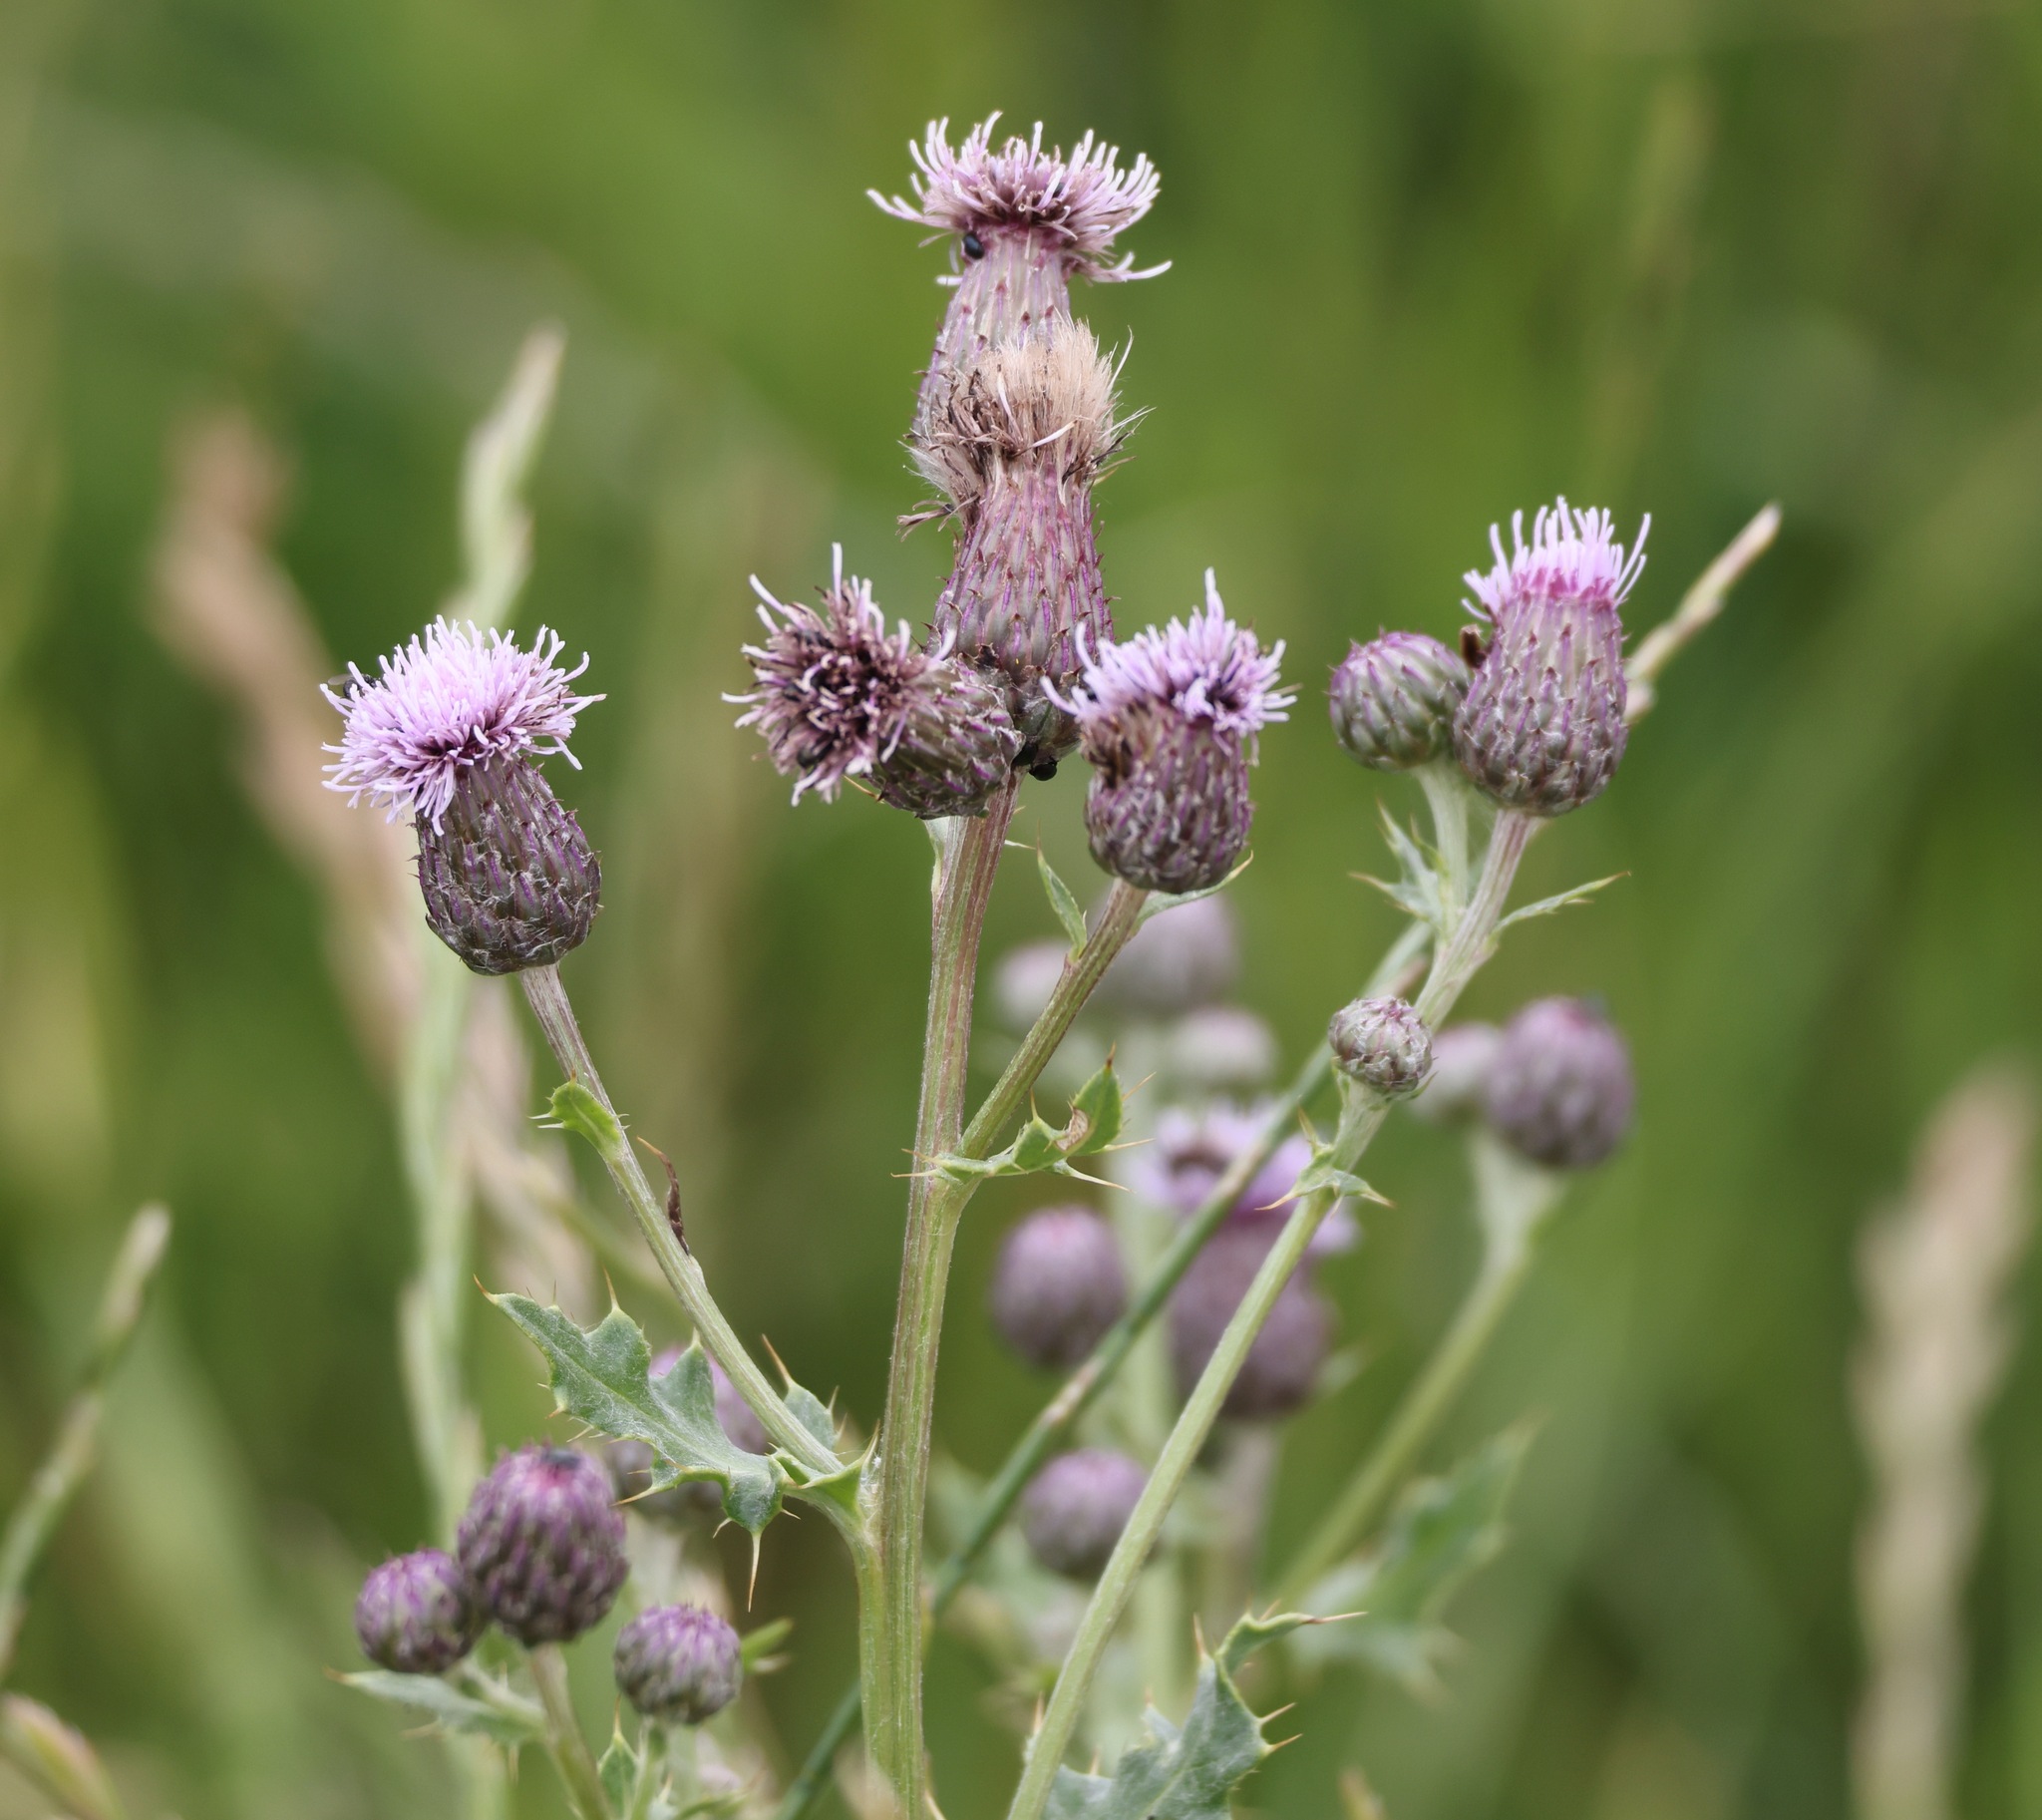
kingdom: Plantae
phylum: Tracheophyta
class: Magnoliopsida
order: Asterales
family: Asteraceae
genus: Cirsium
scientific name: Cirsium arvense
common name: Creeping thistle
